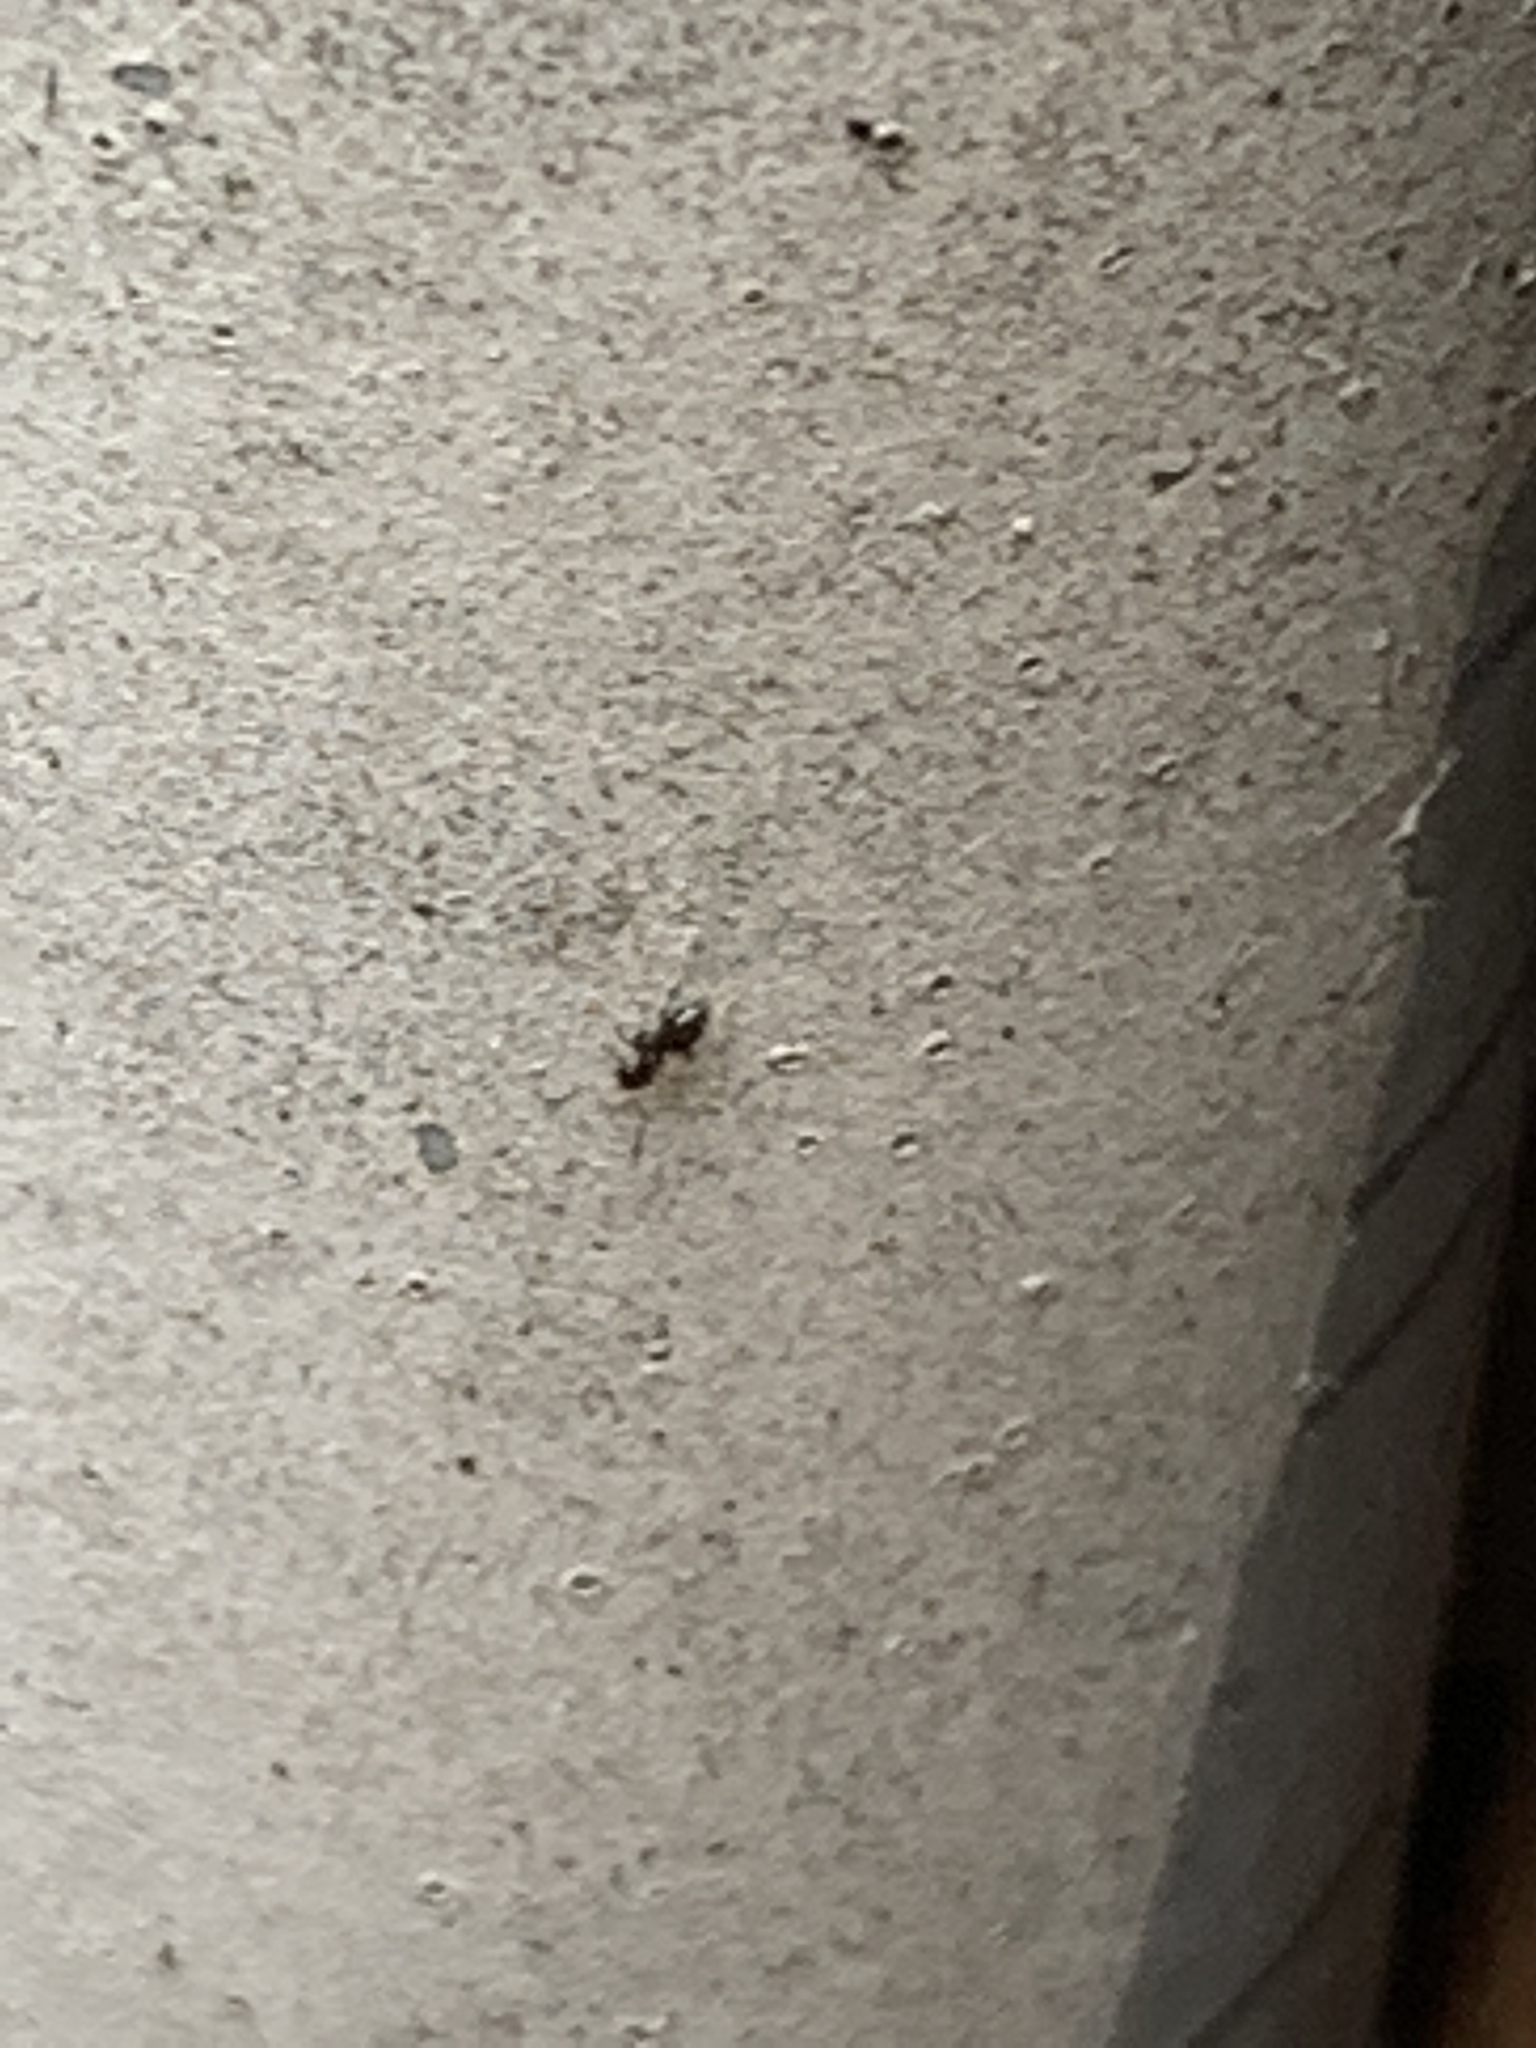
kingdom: Animalia
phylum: Arthropoda
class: Insecta
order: Hymenoptera
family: Formicidae
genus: Brachymyrmex
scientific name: Brachymyrmex patagonicus
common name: Dark rover ant
